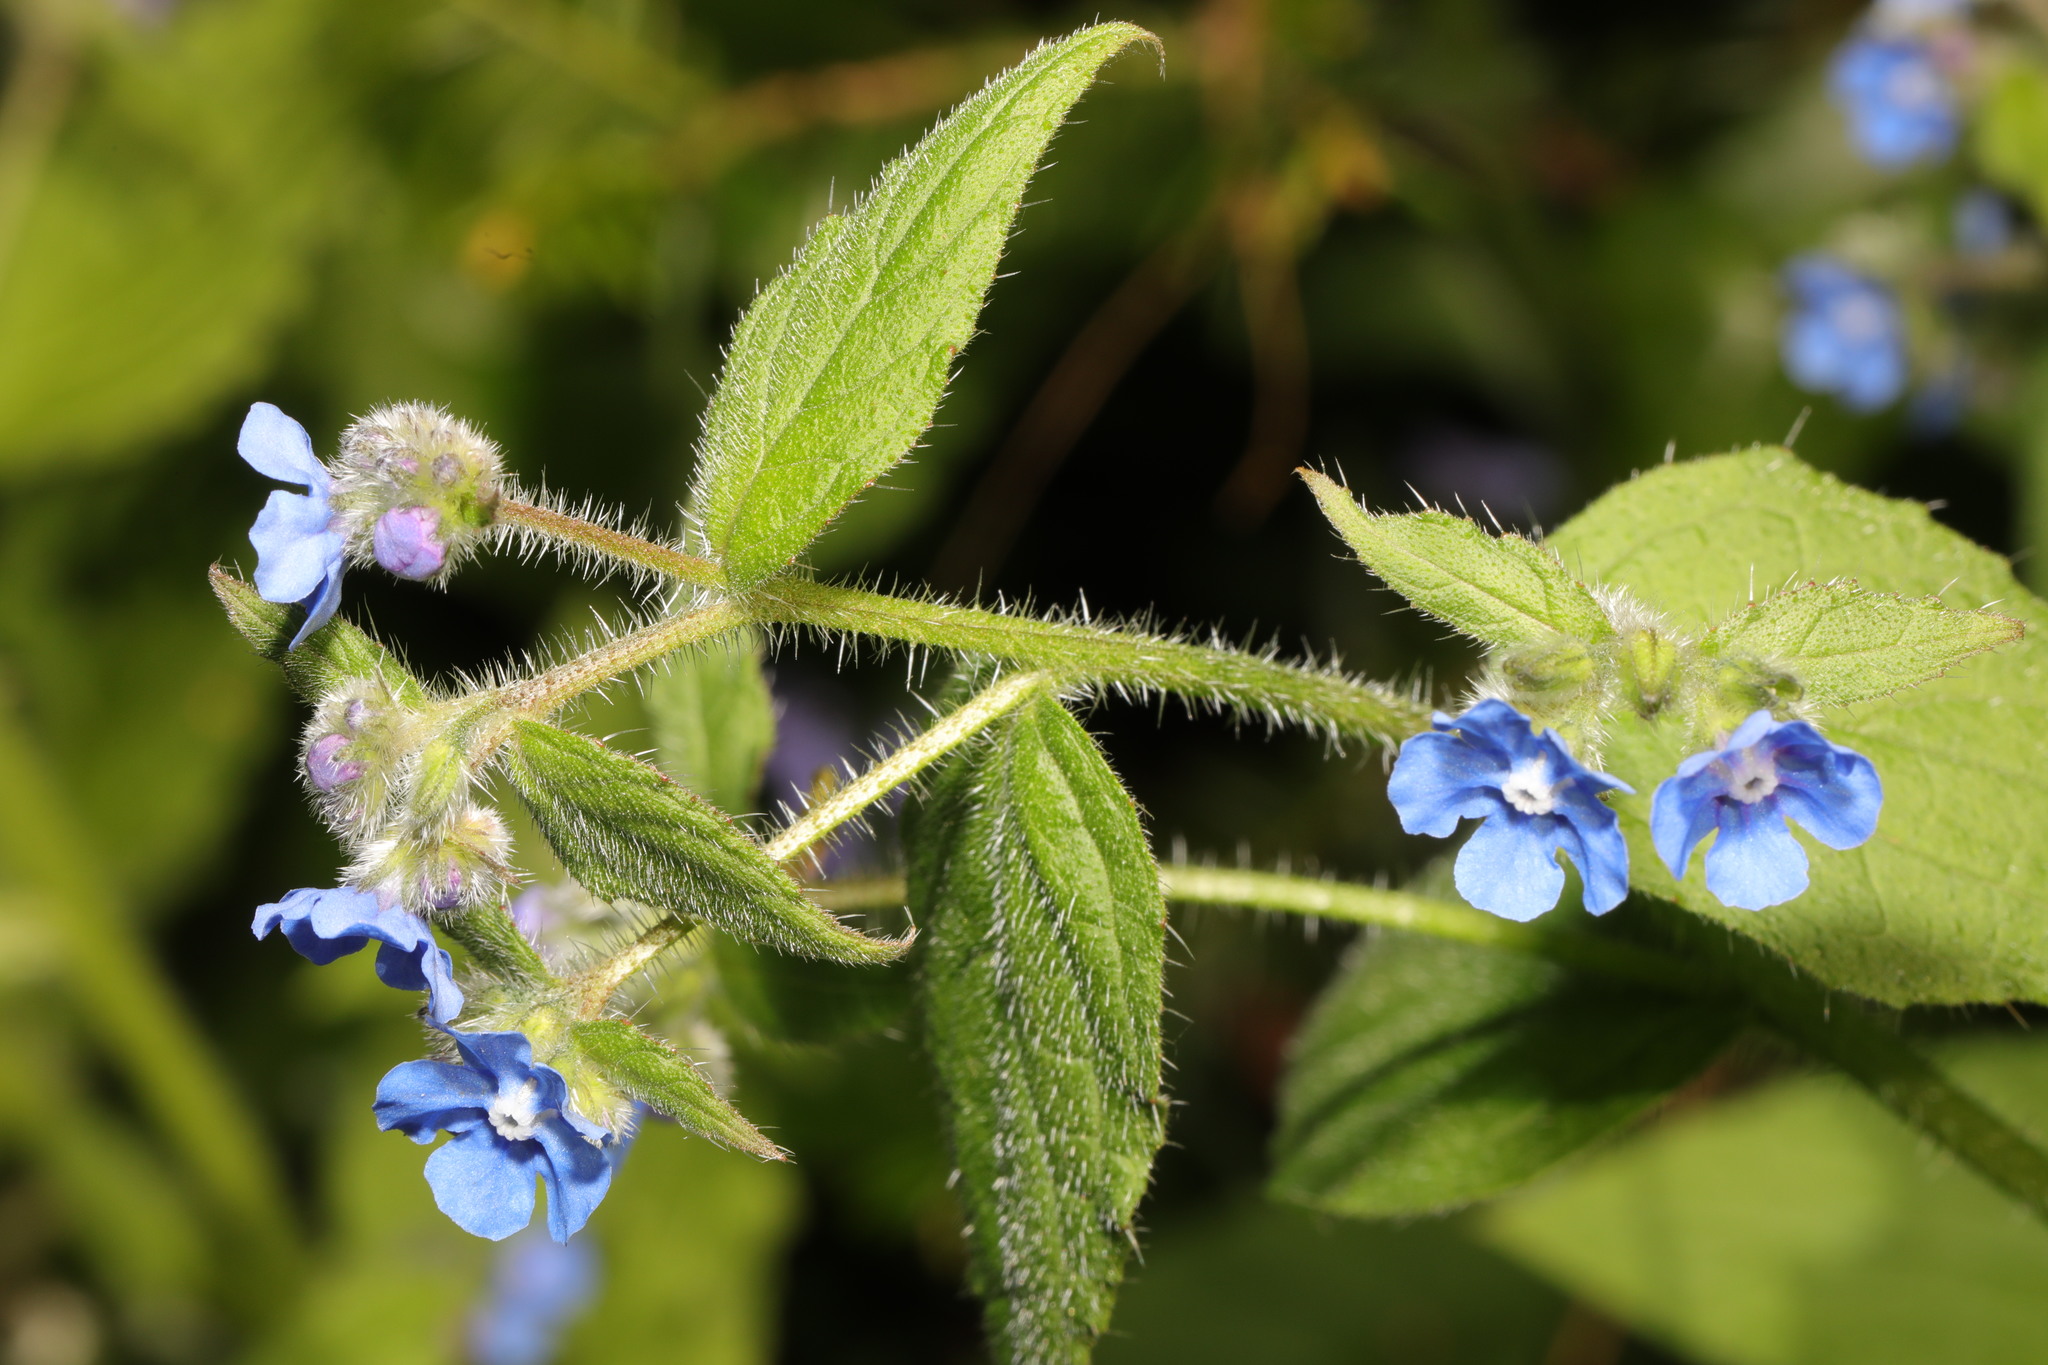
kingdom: Plantae
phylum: Tracheophyta
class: Magnoliopsida
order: Boraginales
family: Boraginaceae
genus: Pentaglottis
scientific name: Pentaglottis sempervirens
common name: Green alkanet
